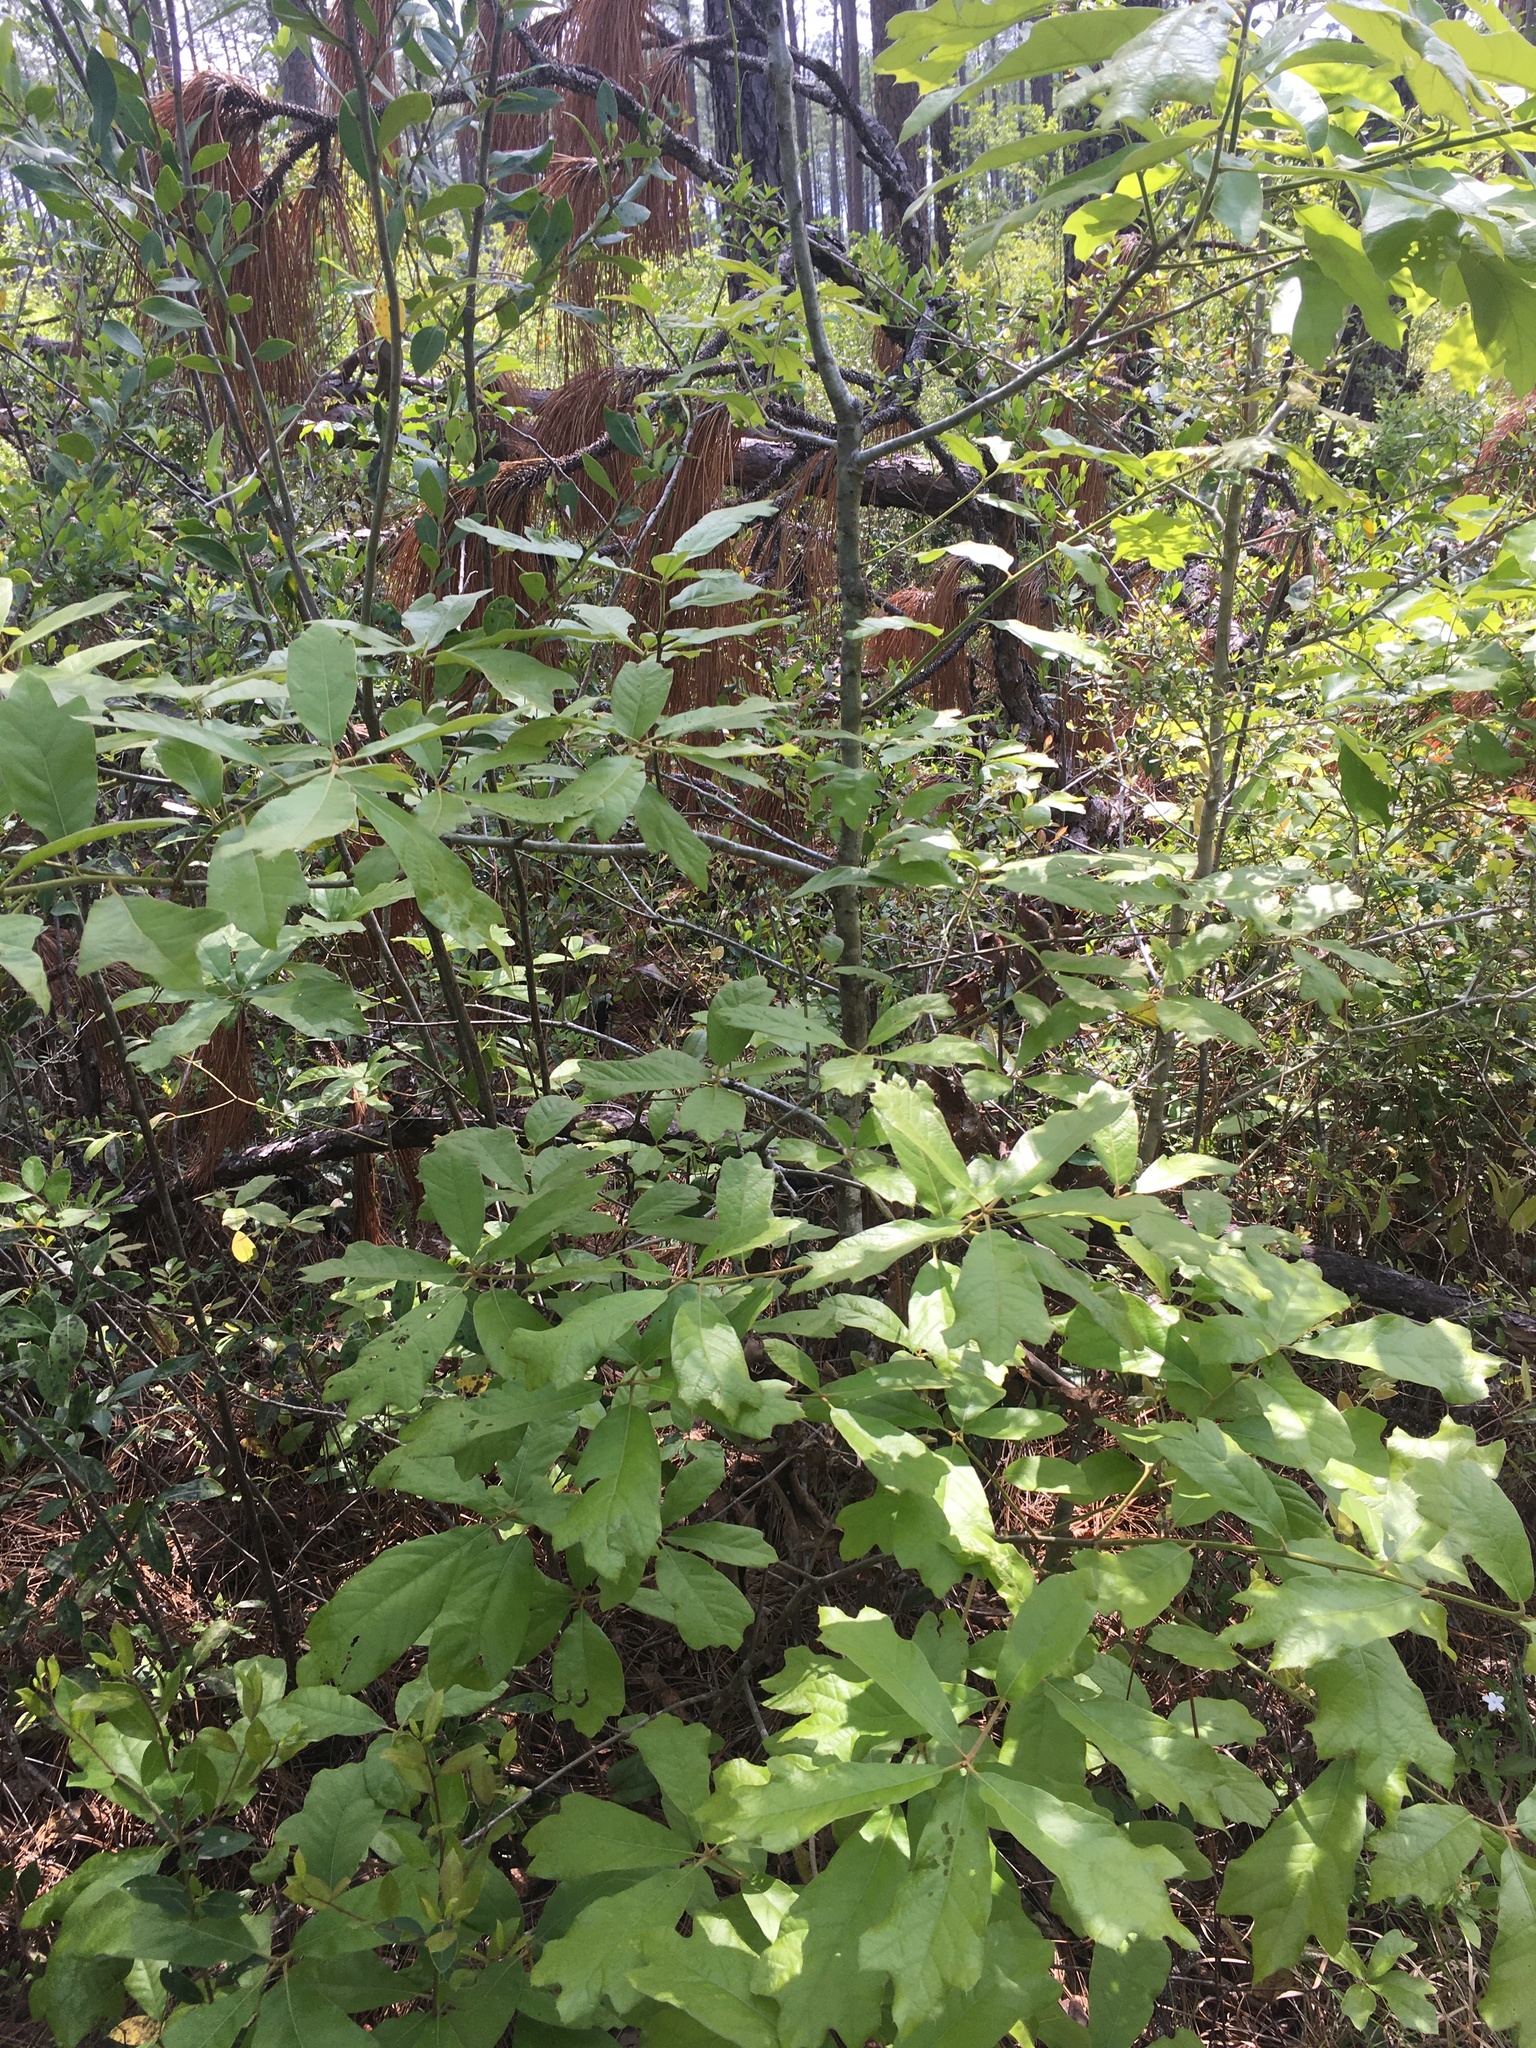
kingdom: Plantae
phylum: Tracheophyta
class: Magnoliopsida
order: Fagales
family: Fagaceae
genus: Quercus
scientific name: Quercus falcata
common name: Southern red oak
